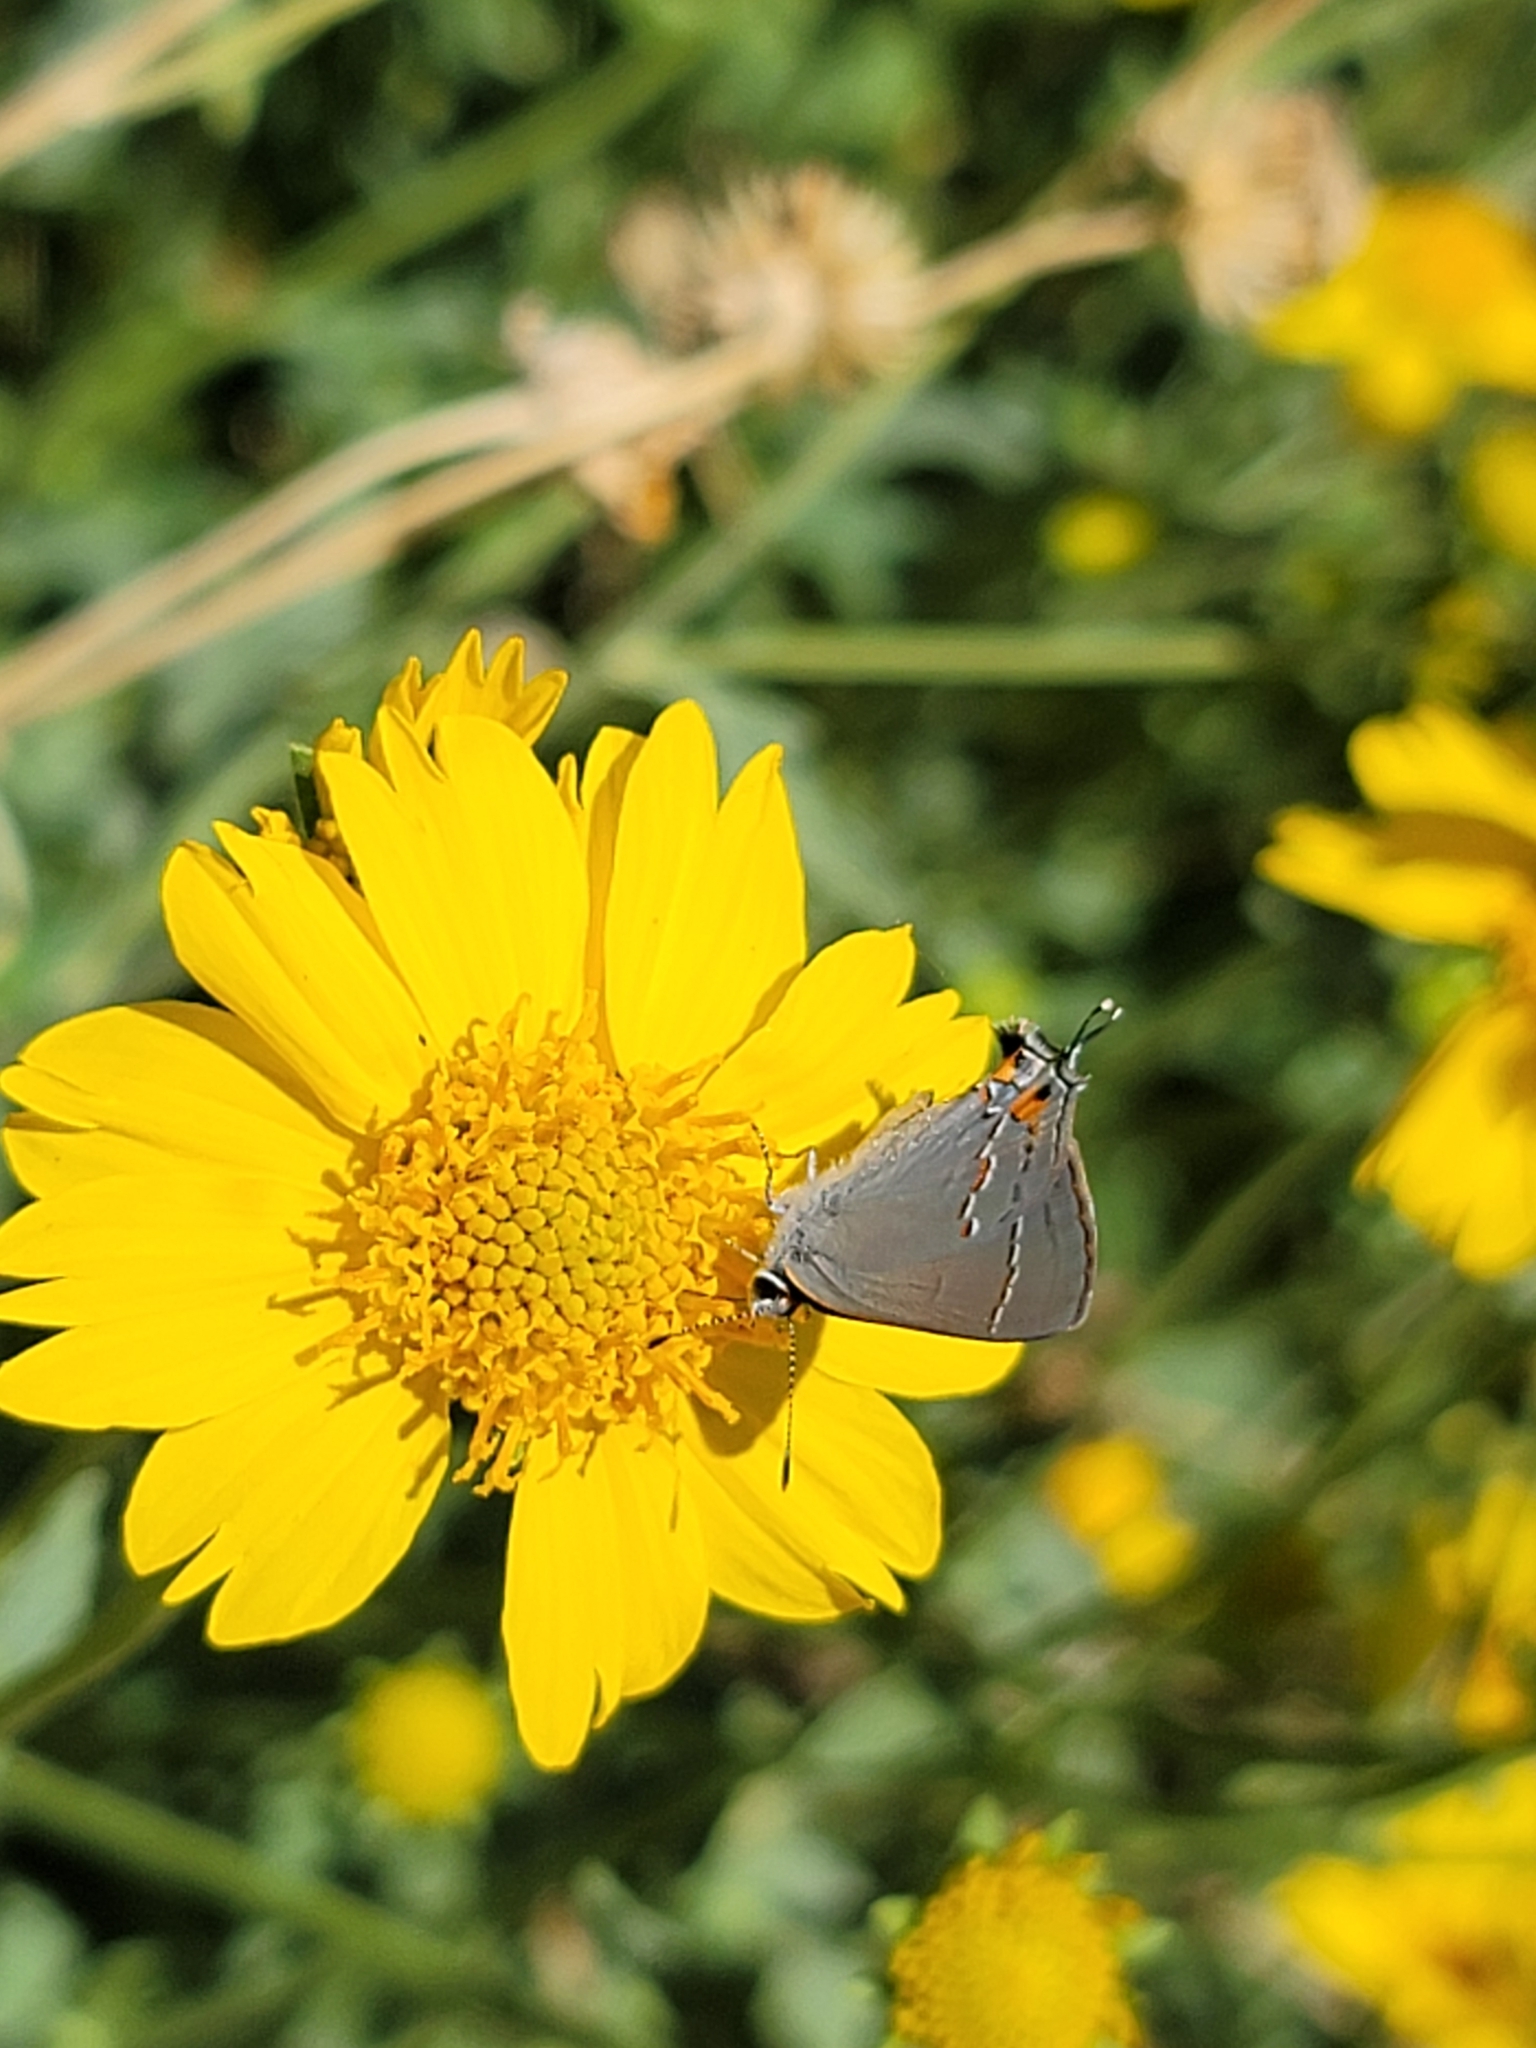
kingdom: Animalia
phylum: Arthropoda
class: Insecta
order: Lepidoptera
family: Lycaenidae
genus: Strymon
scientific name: Strymon melinus
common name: Gray hairstreak
